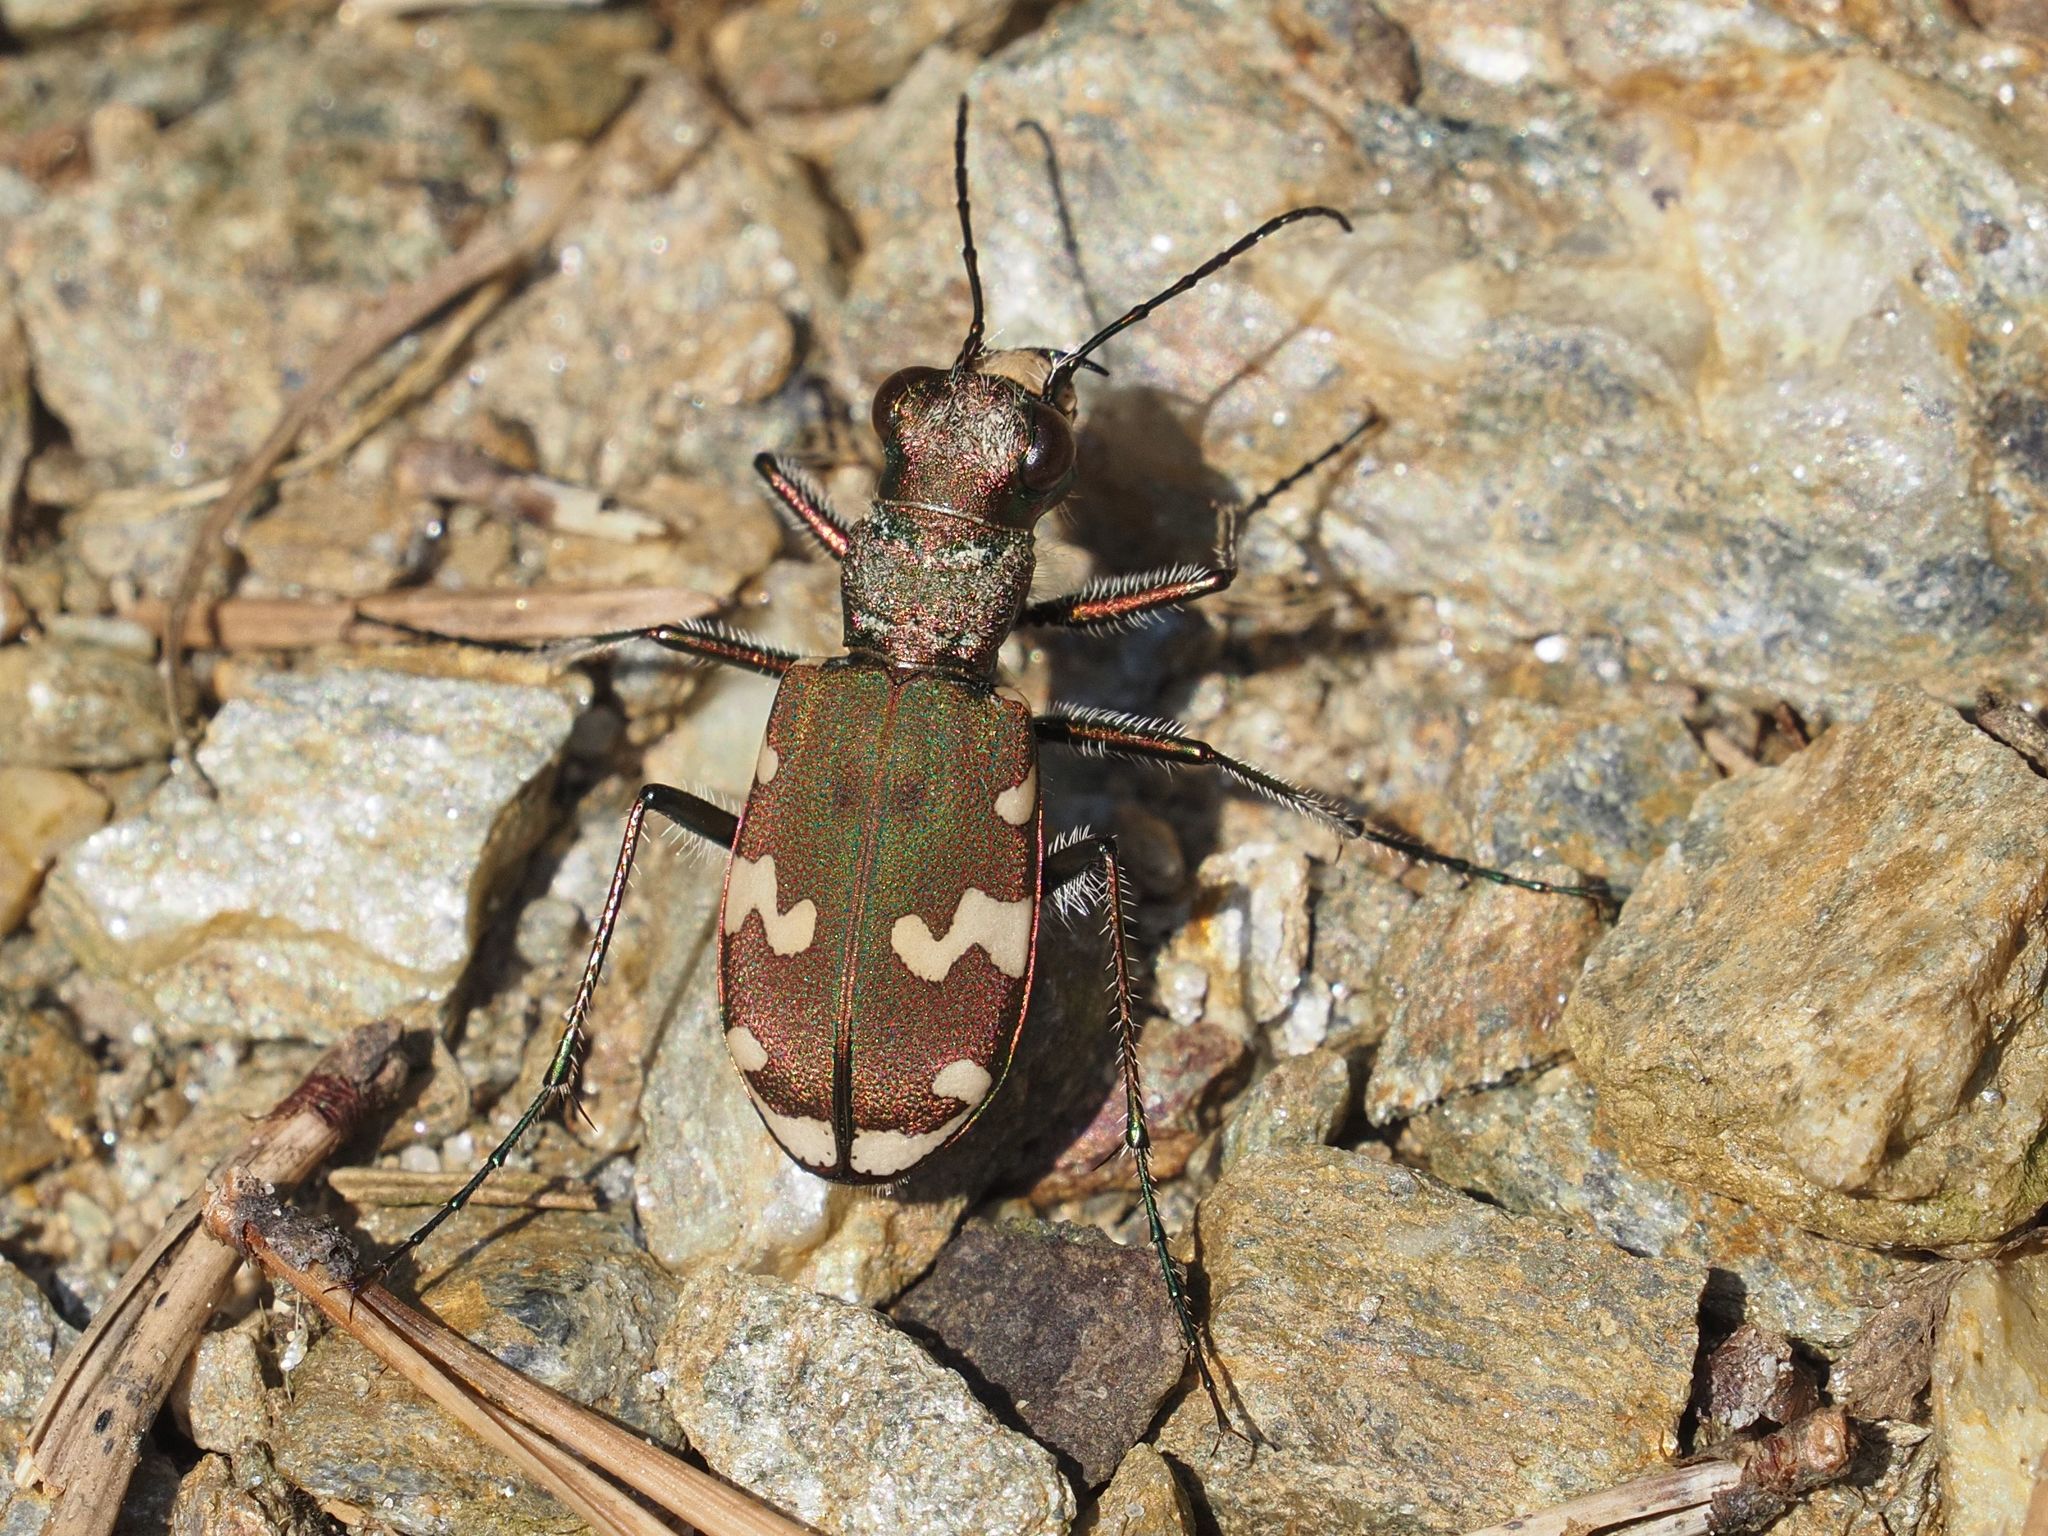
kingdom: Animalia
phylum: Arthropoda
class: Insecta
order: Coleoptera
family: Carabidae
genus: Cicindela
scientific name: Cicindela sylvicola
